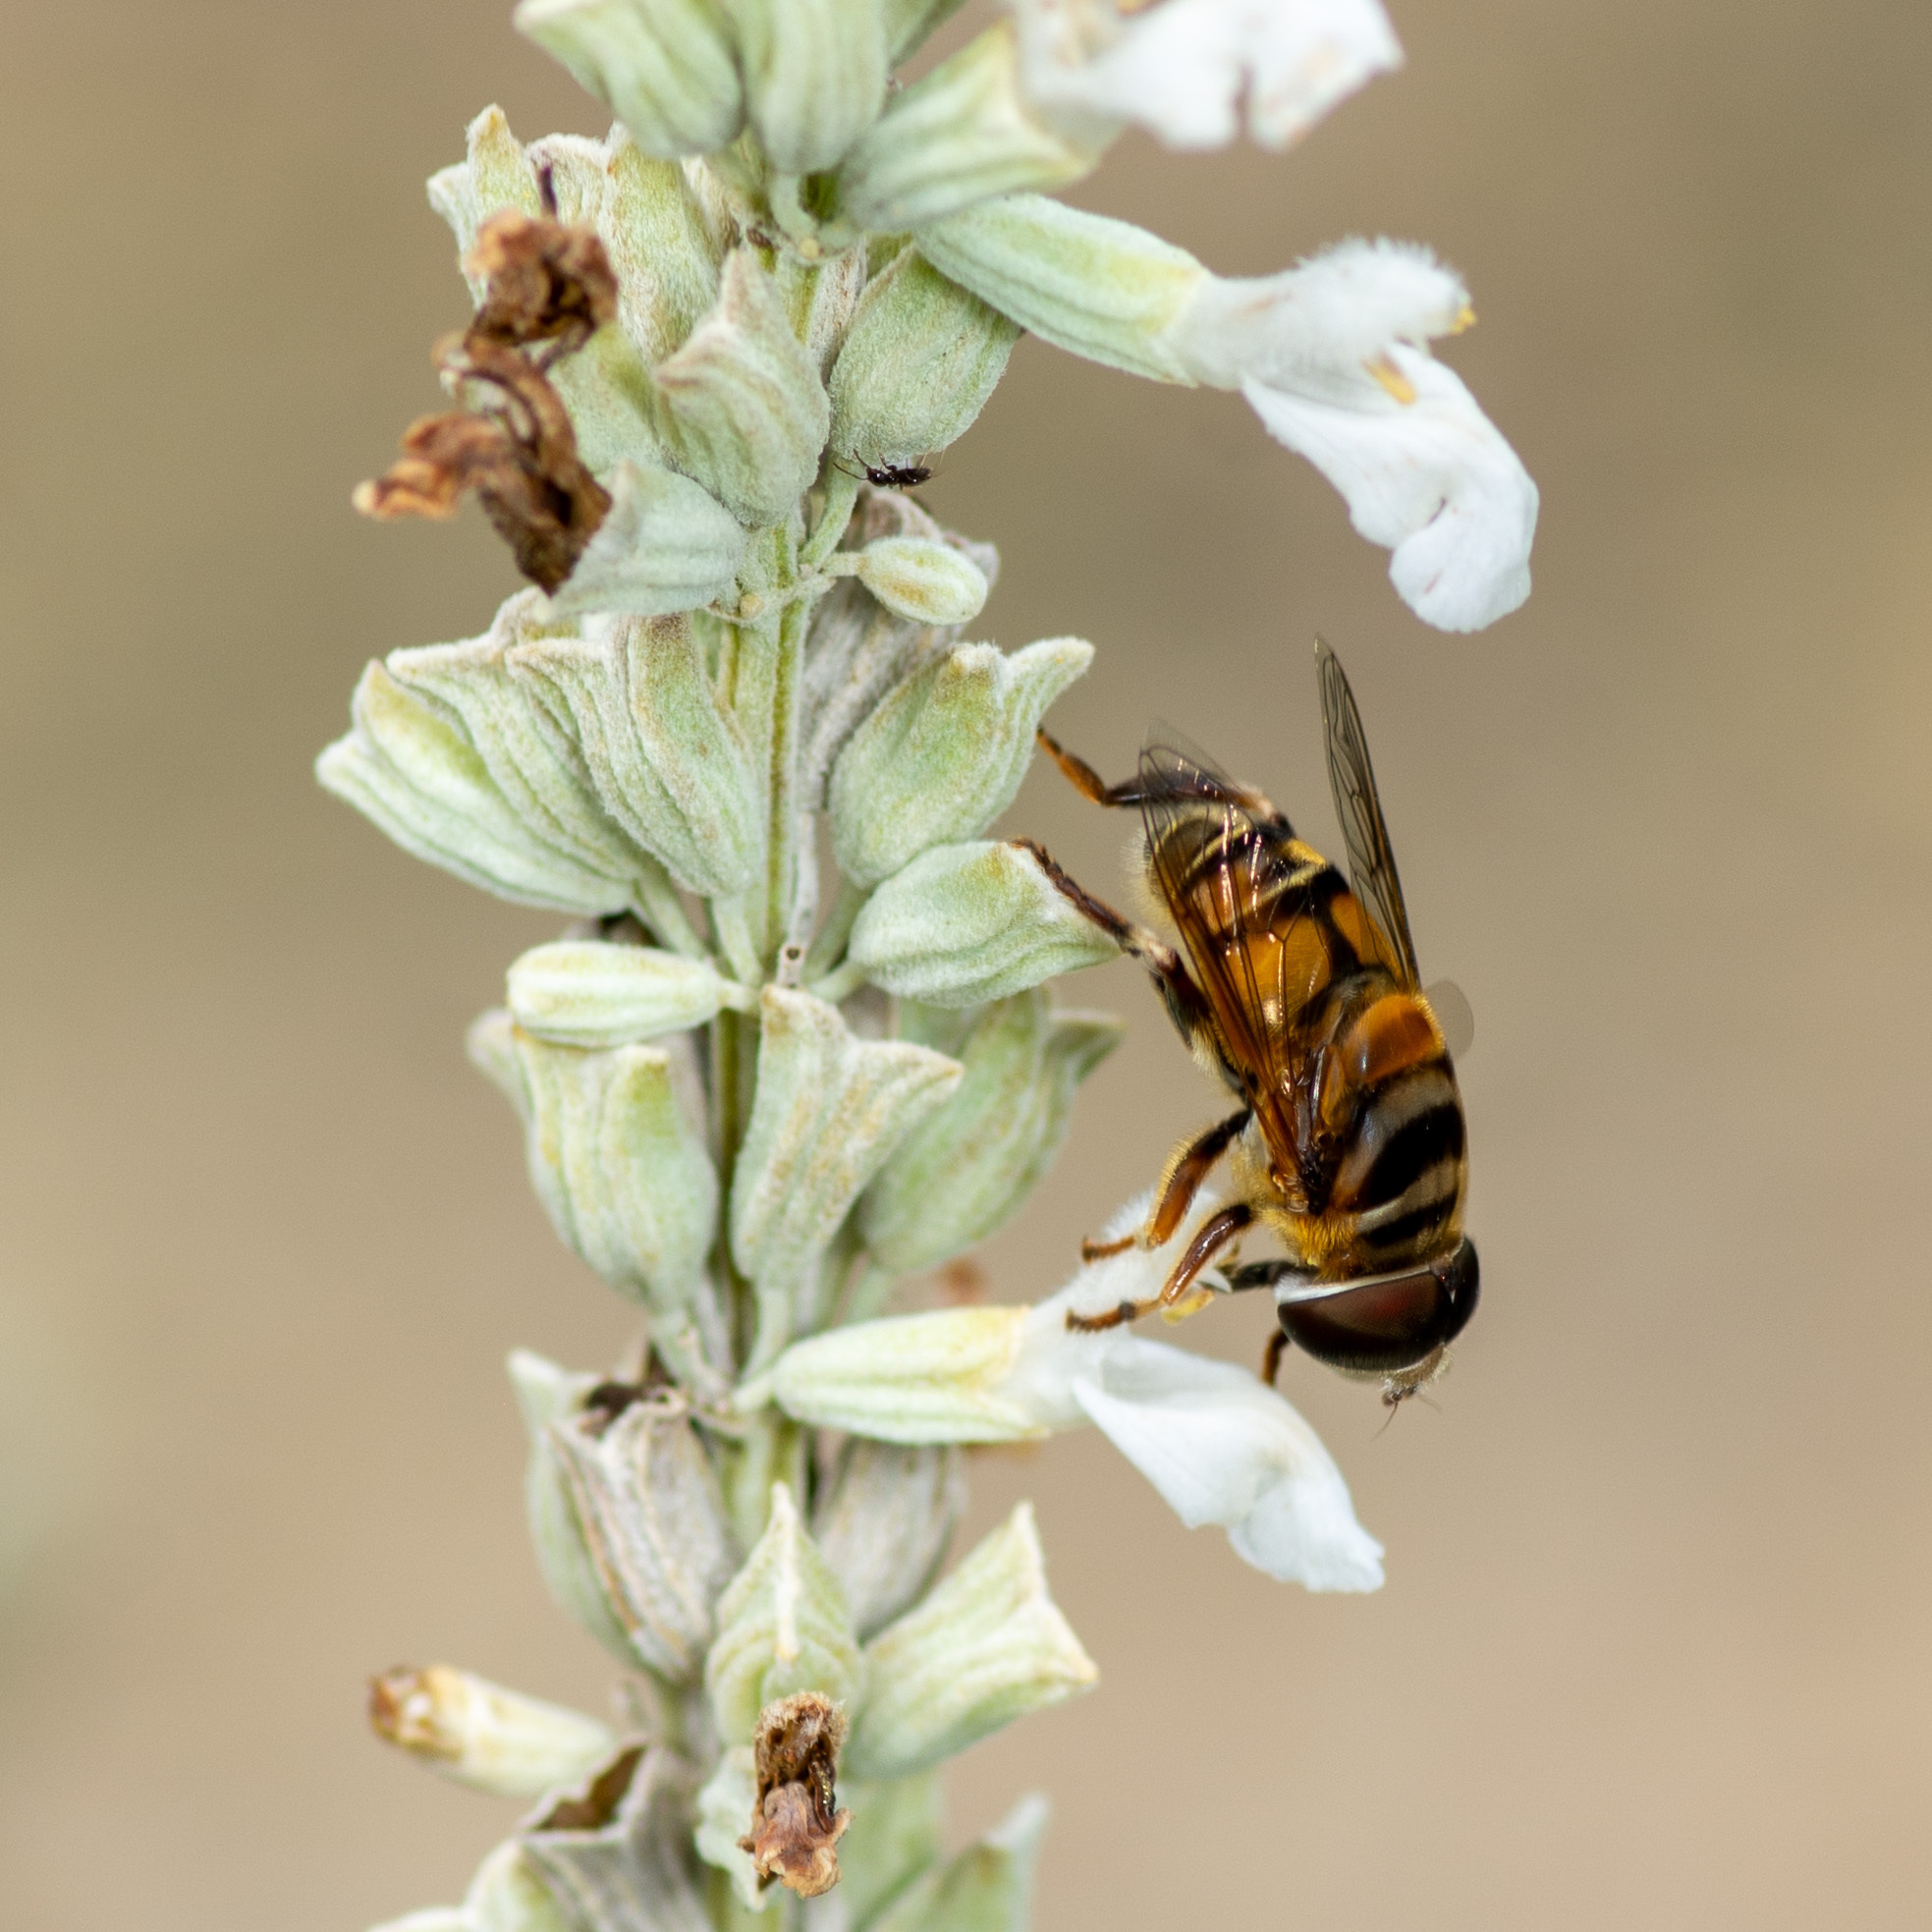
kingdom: Animalia
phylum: Arthropoda
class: Insecta
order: Diptera
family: Syrphidae
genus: Palpada
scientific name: Palpada vinetorum
